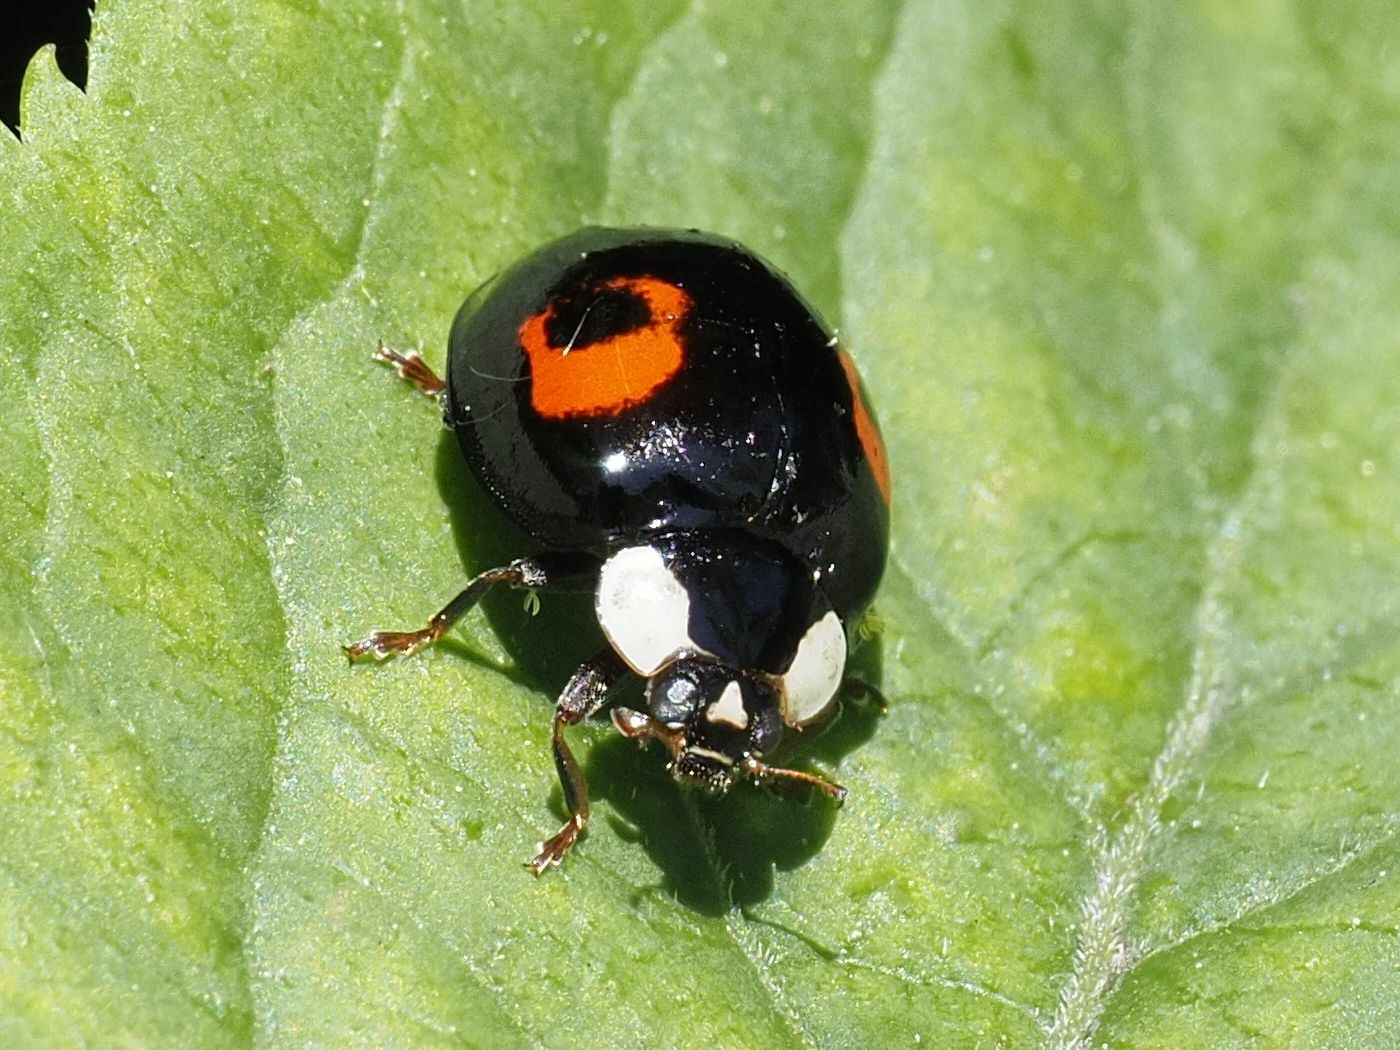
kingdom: Animalia
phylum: Arthropoda
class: Insecta
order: Coleoptera
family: Coccinellidae
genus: Harmonia
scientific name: Harmonia axyridis
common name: Harlequin ladybird
